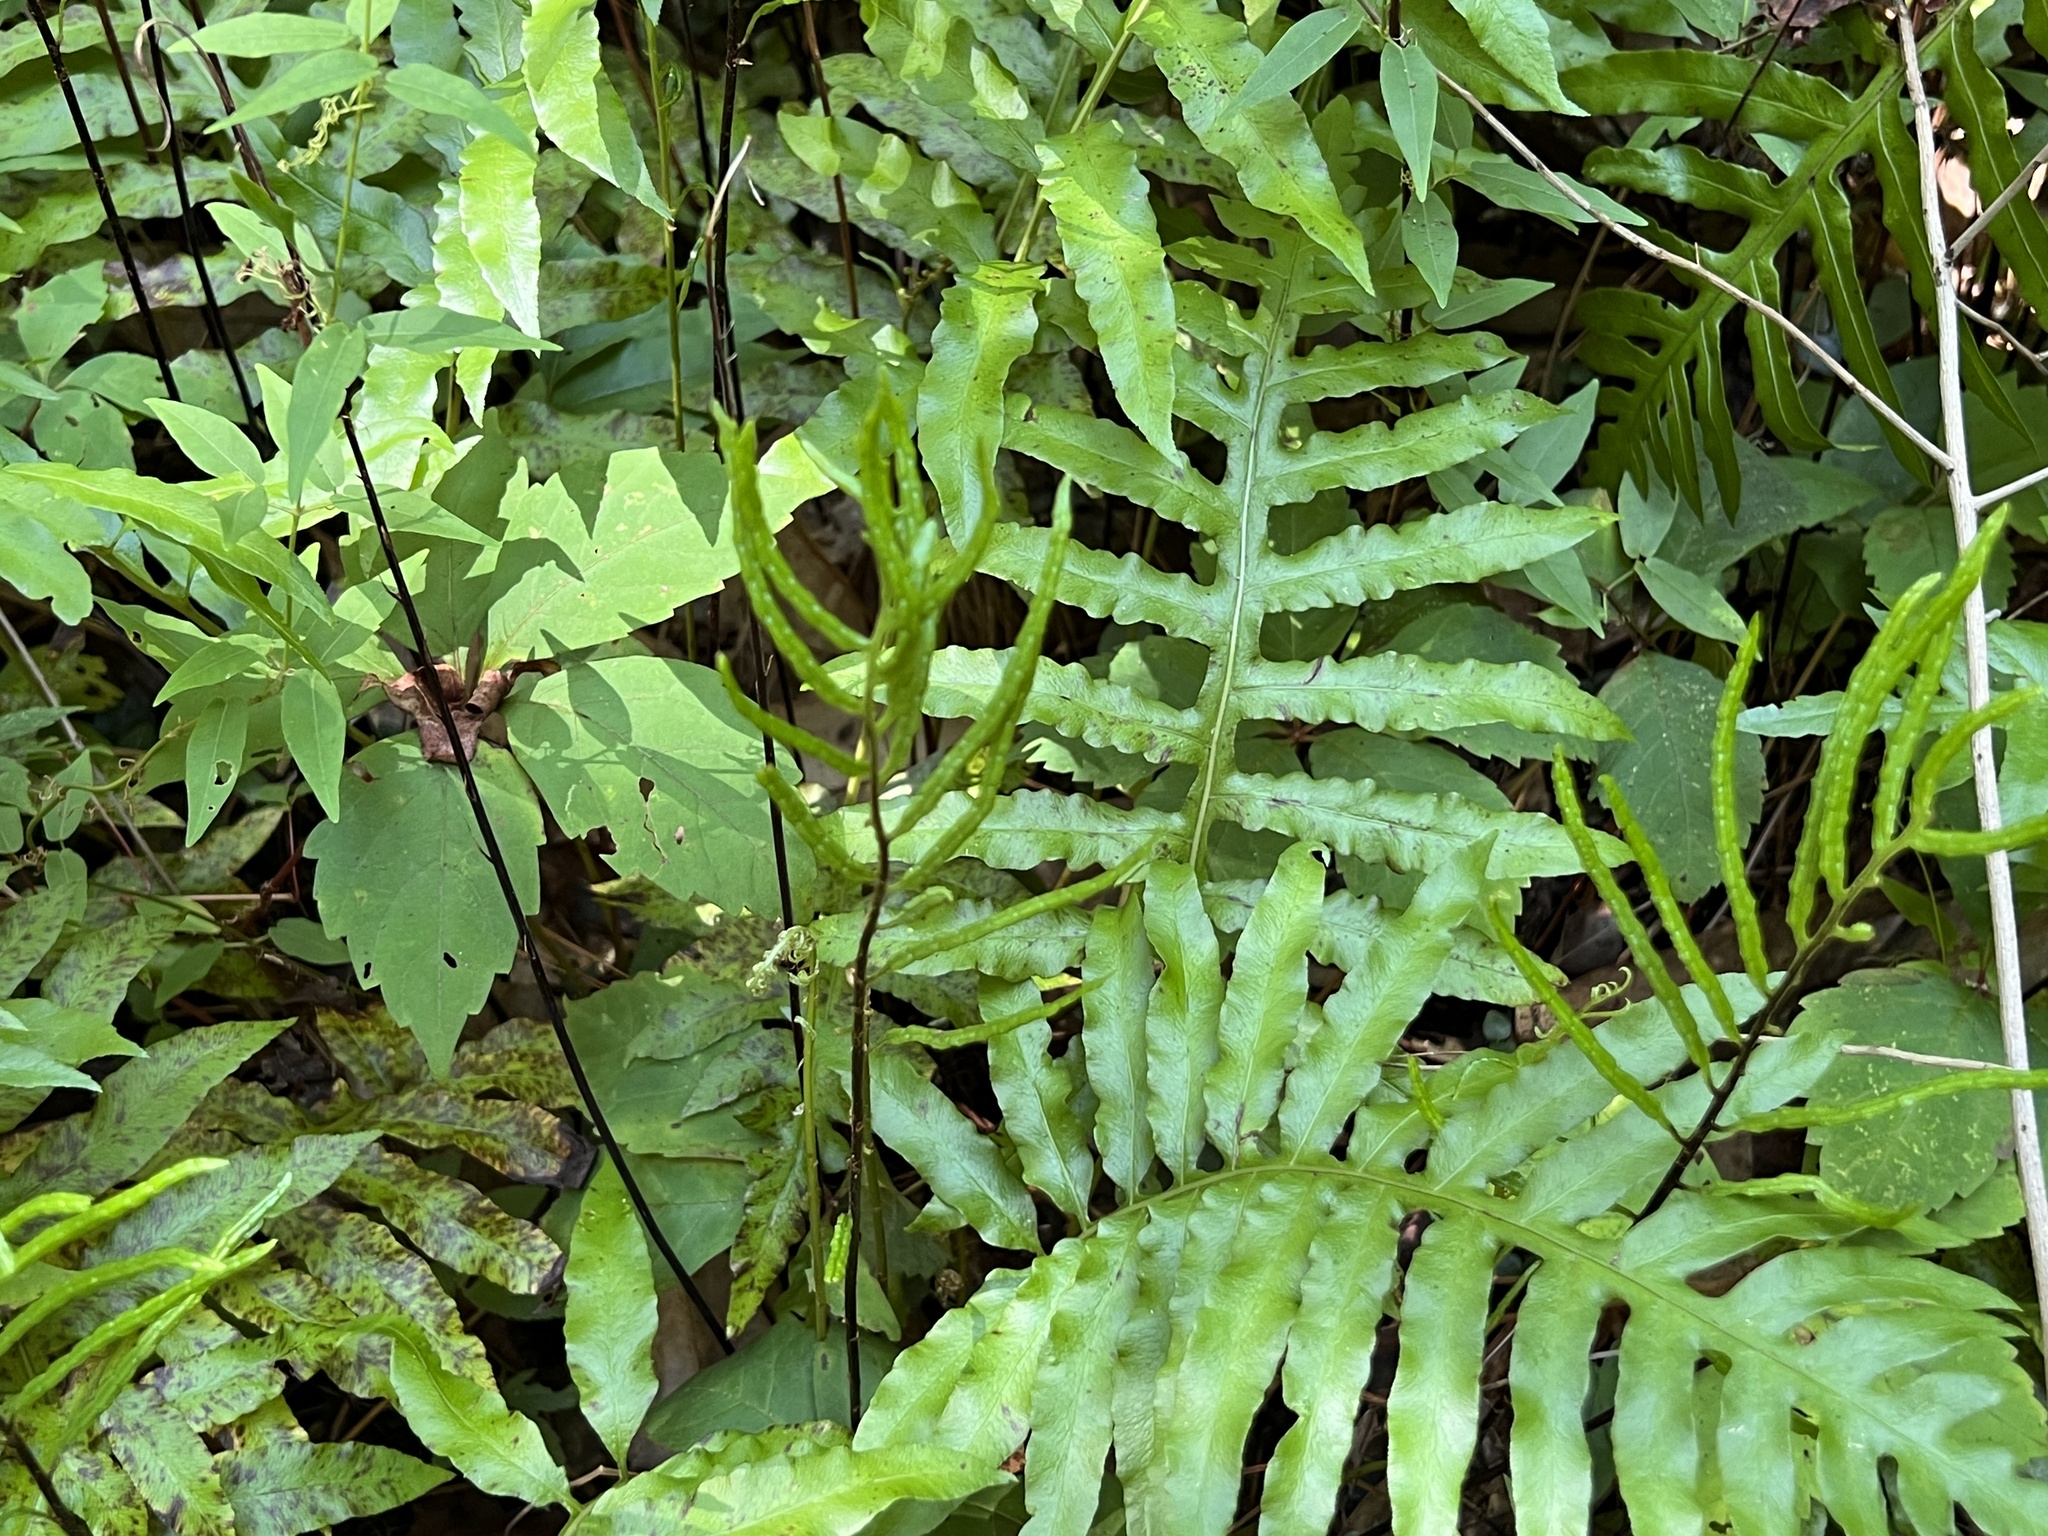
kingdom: Plantae
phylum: Tracheophyta
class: Polypodiopsida
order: Polypodiales
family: Blechnaceae
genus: Lorinseria
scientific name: Lorinseria areolata
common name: Dwarf chain fern
